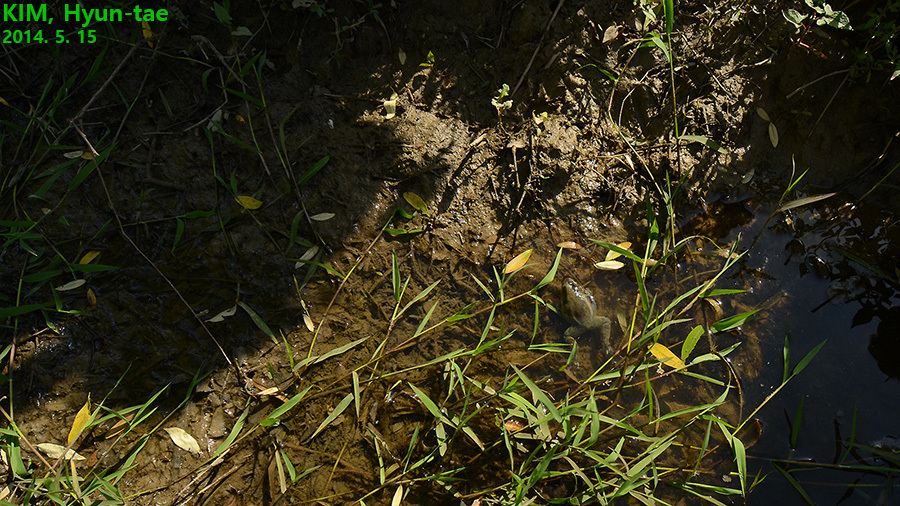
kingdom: Animalia
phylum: Chordata
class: Amphibia
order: Anura
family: Ranidae
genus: Pelophylax
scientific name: Pelophylax chosenicus
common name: Gold-spotted pond frog
